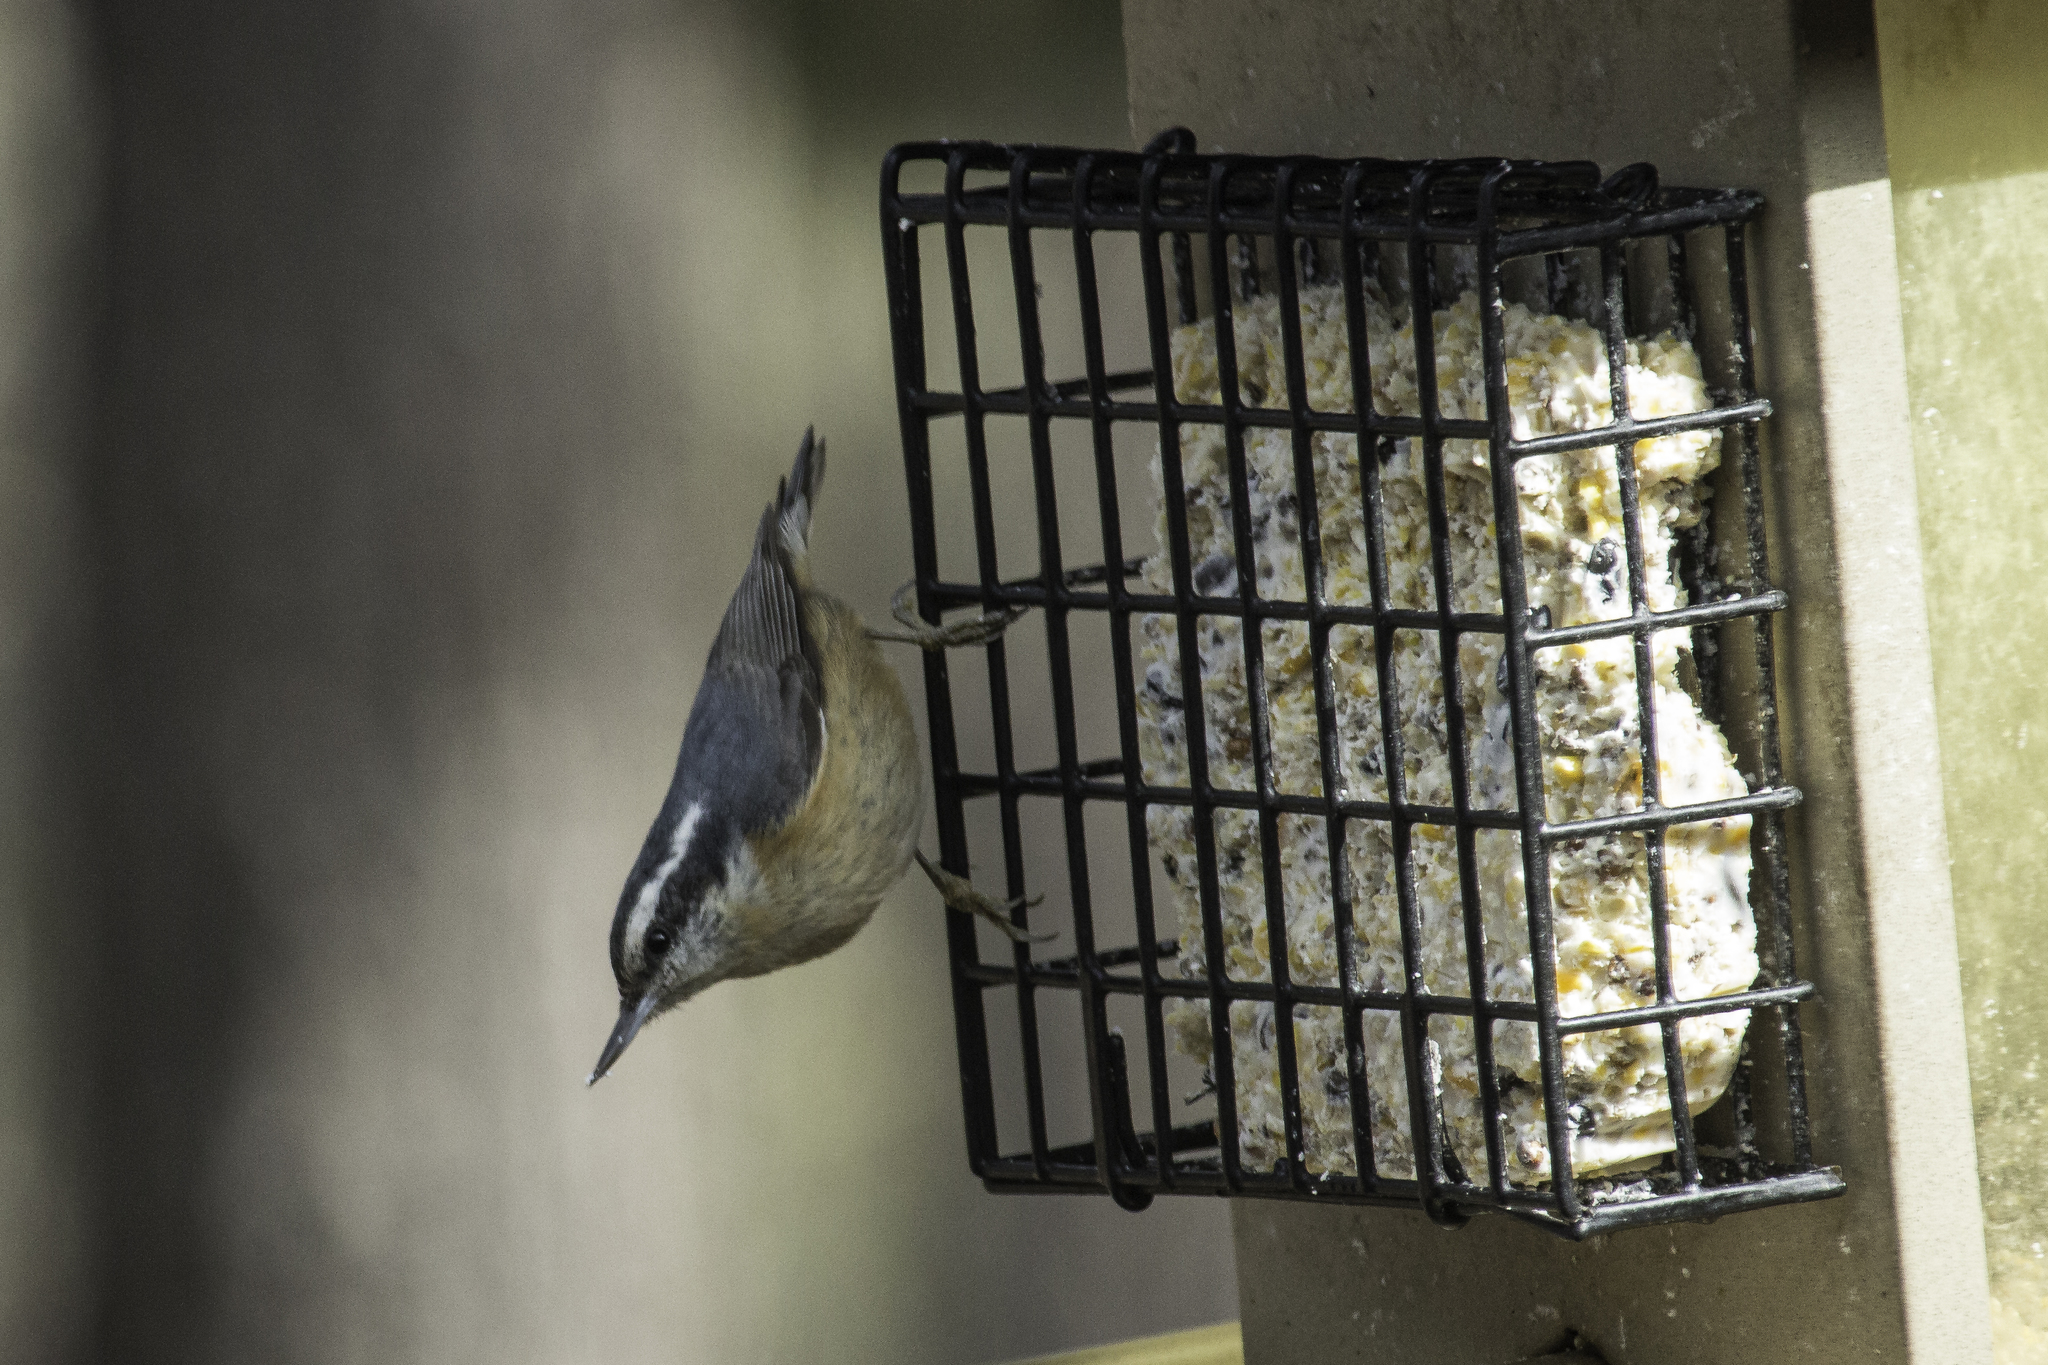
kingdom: Animalia
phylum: Chordata
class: Aves
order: Passeriformes
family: Sittidae
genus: Sitta
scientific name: Sitta canadensis
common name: Red-breasted nuthatch
